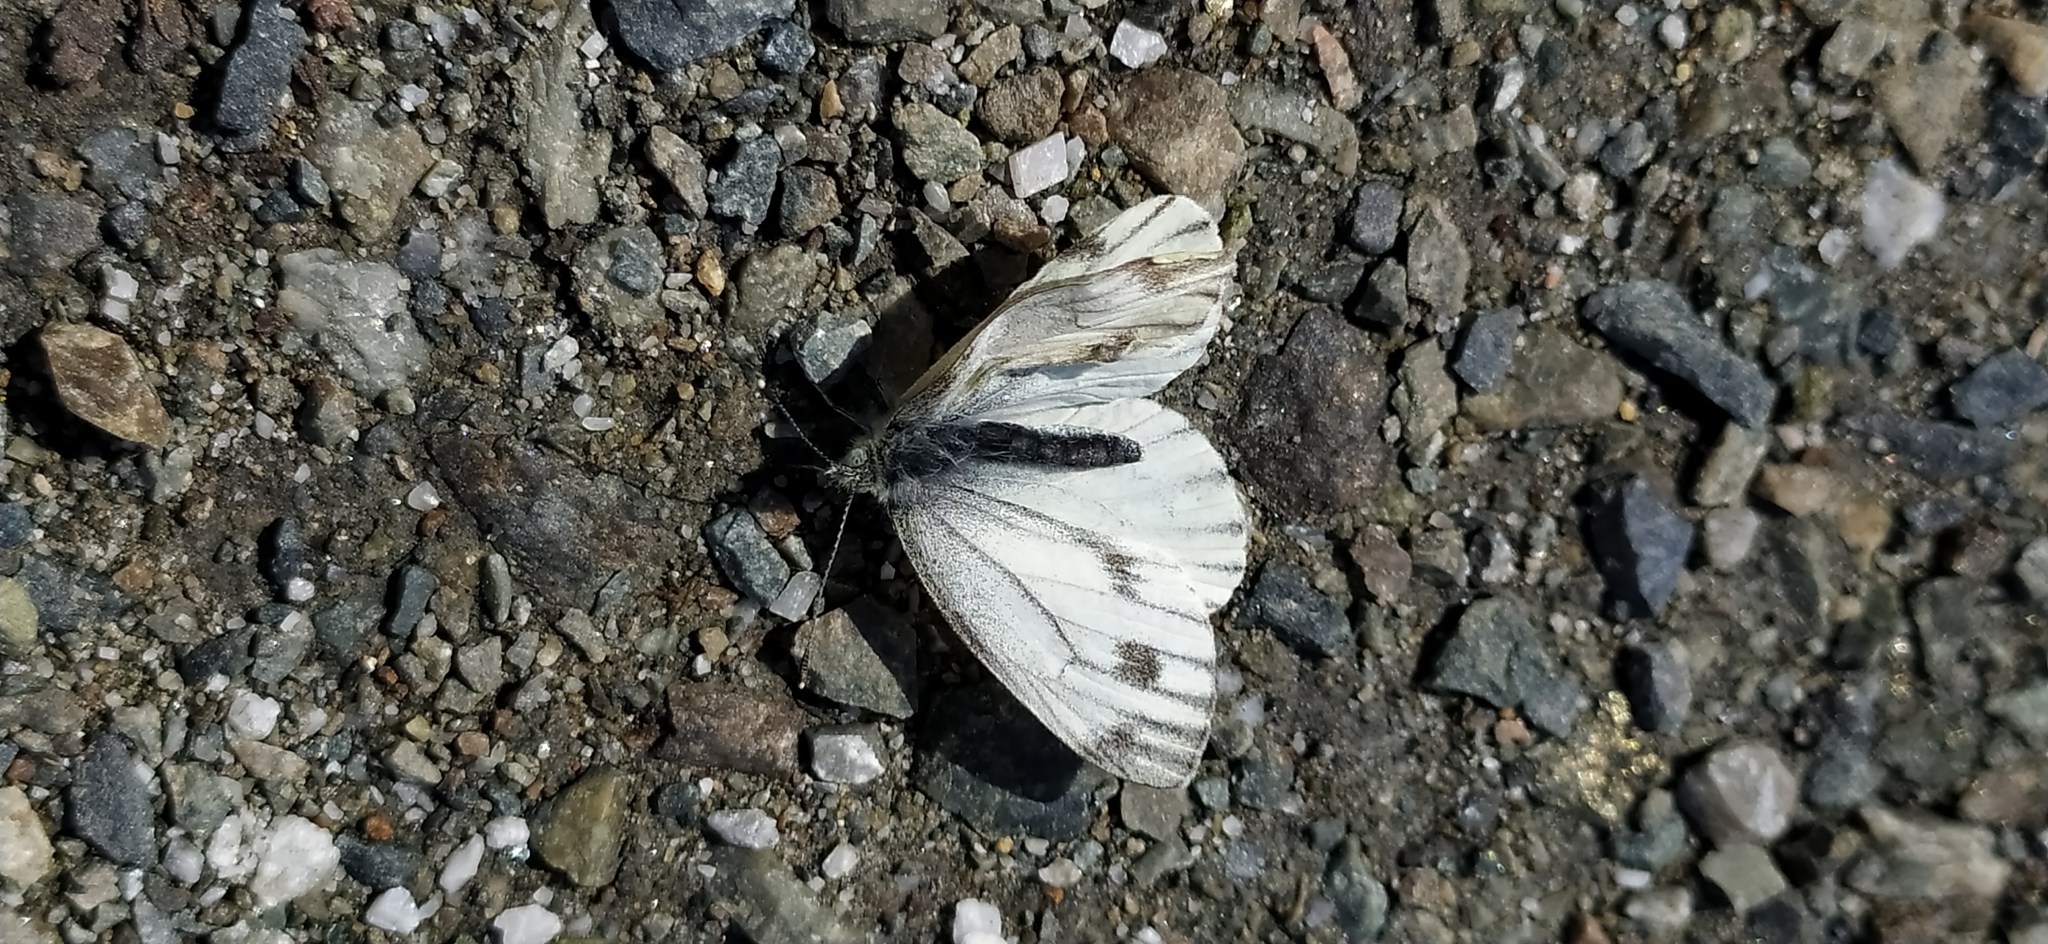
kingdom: Animalia
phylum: Arthropoda
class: Insecta
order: Lepidoptera
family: Pieridae
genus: Pieris
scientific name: Pieris napi
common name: Green-veined white
